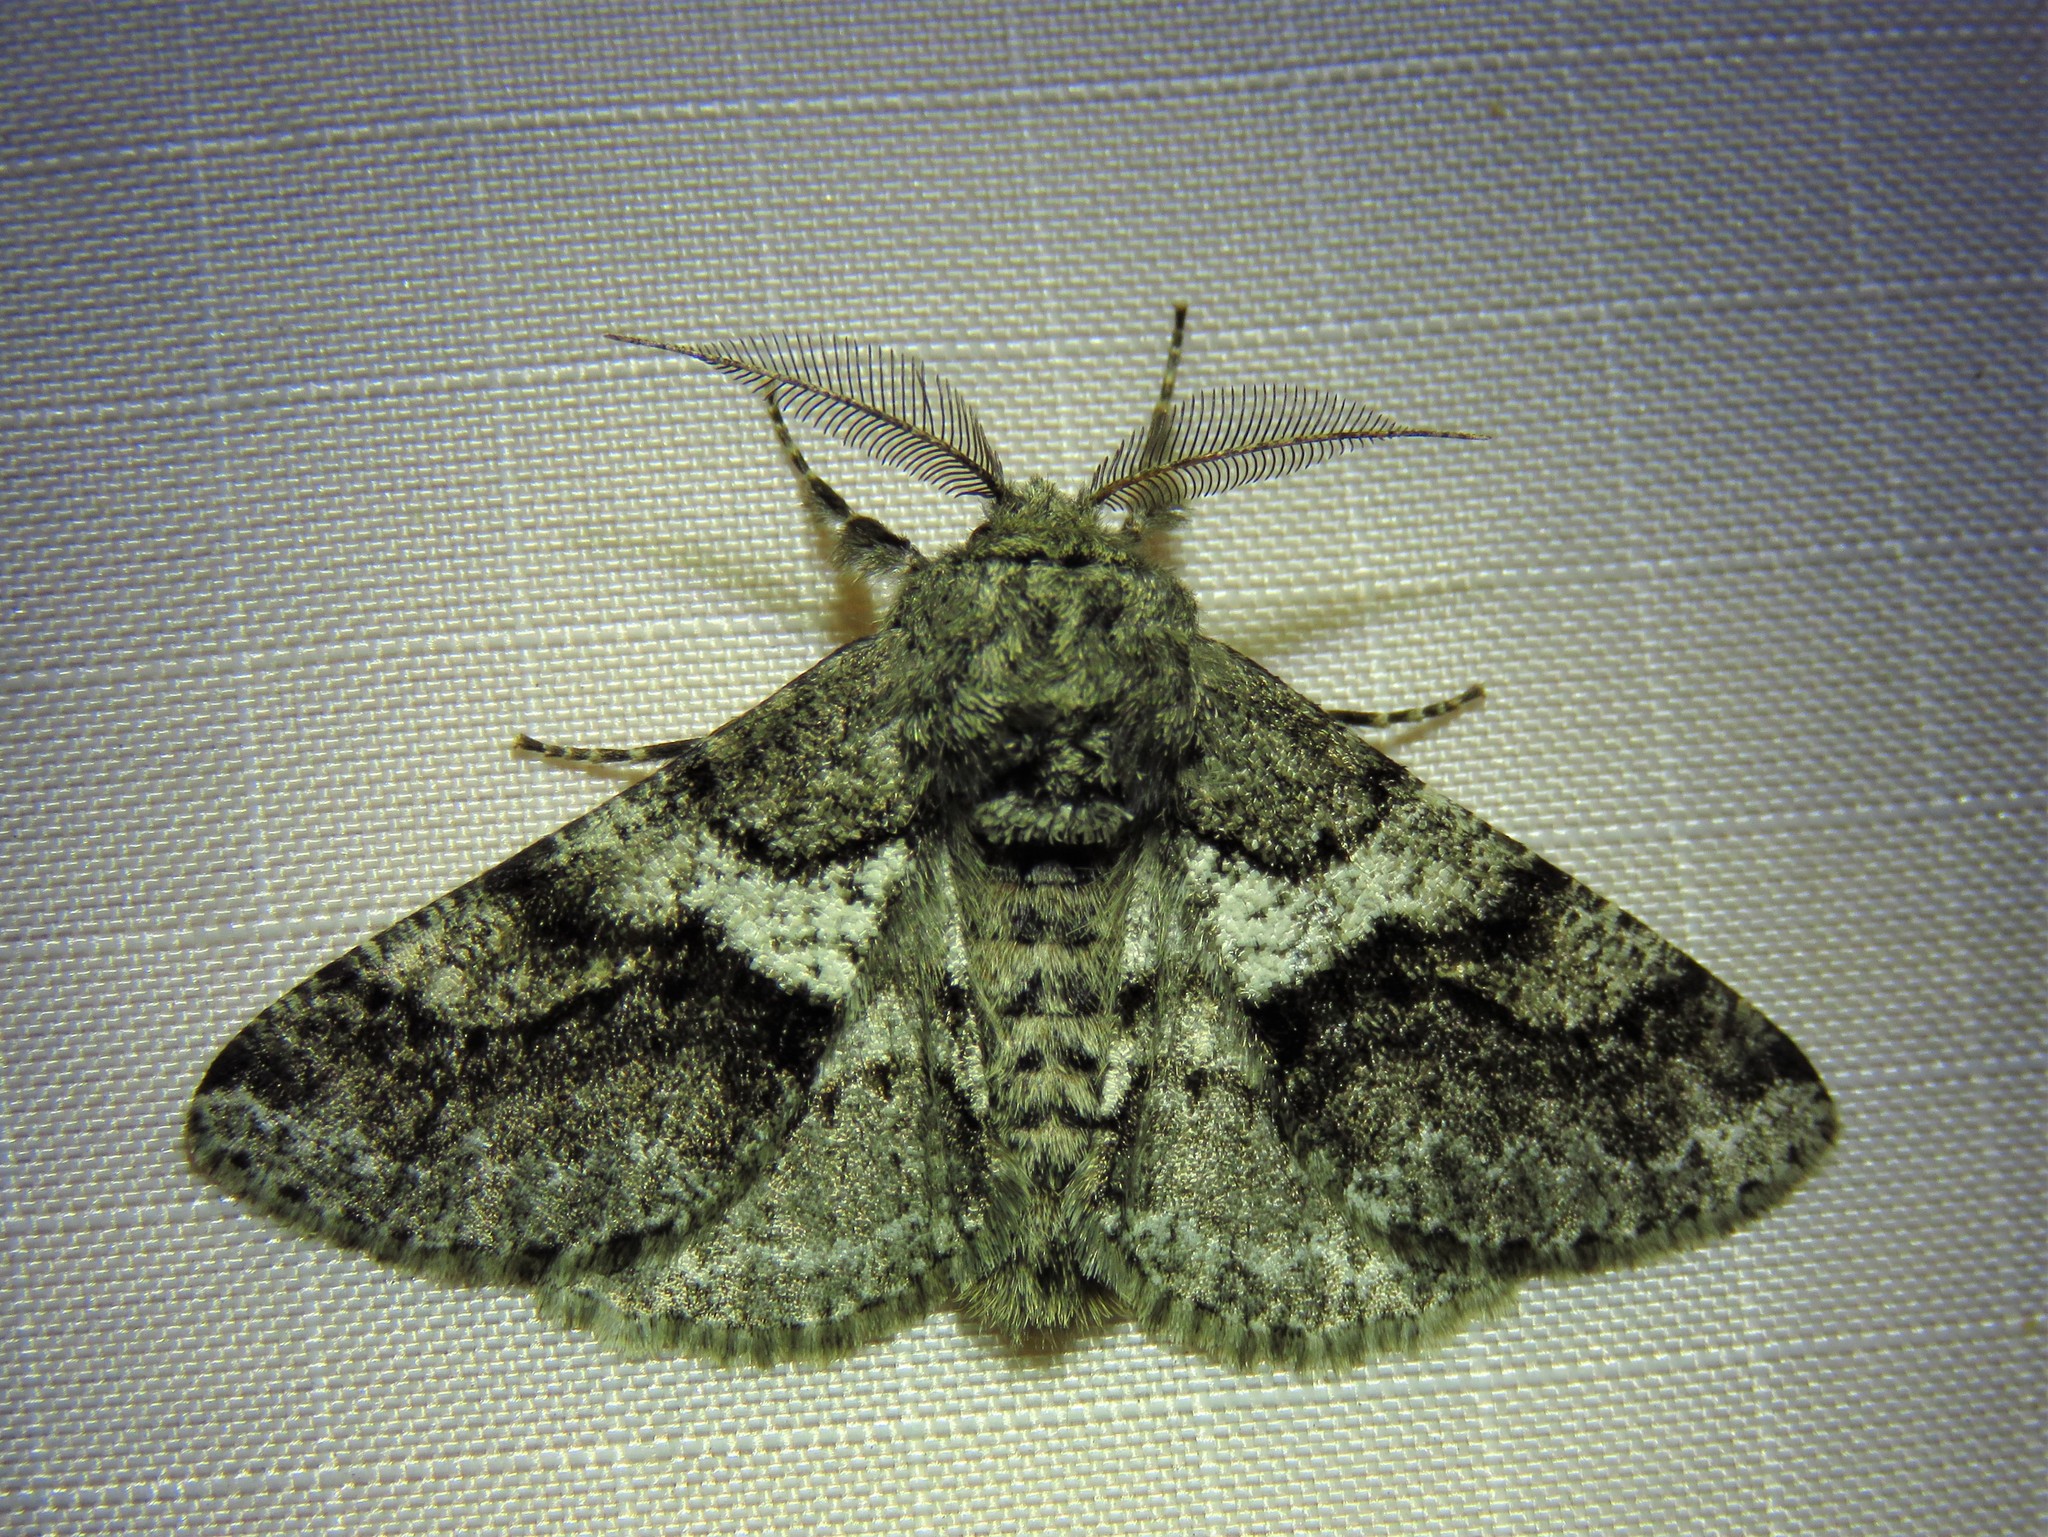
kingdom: Animalia
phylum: Arthropoda
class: Insecta
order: Lepidoptera
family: Geometridae
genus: Lycia
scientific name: Lycia ypsilon
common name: Wooly gray
